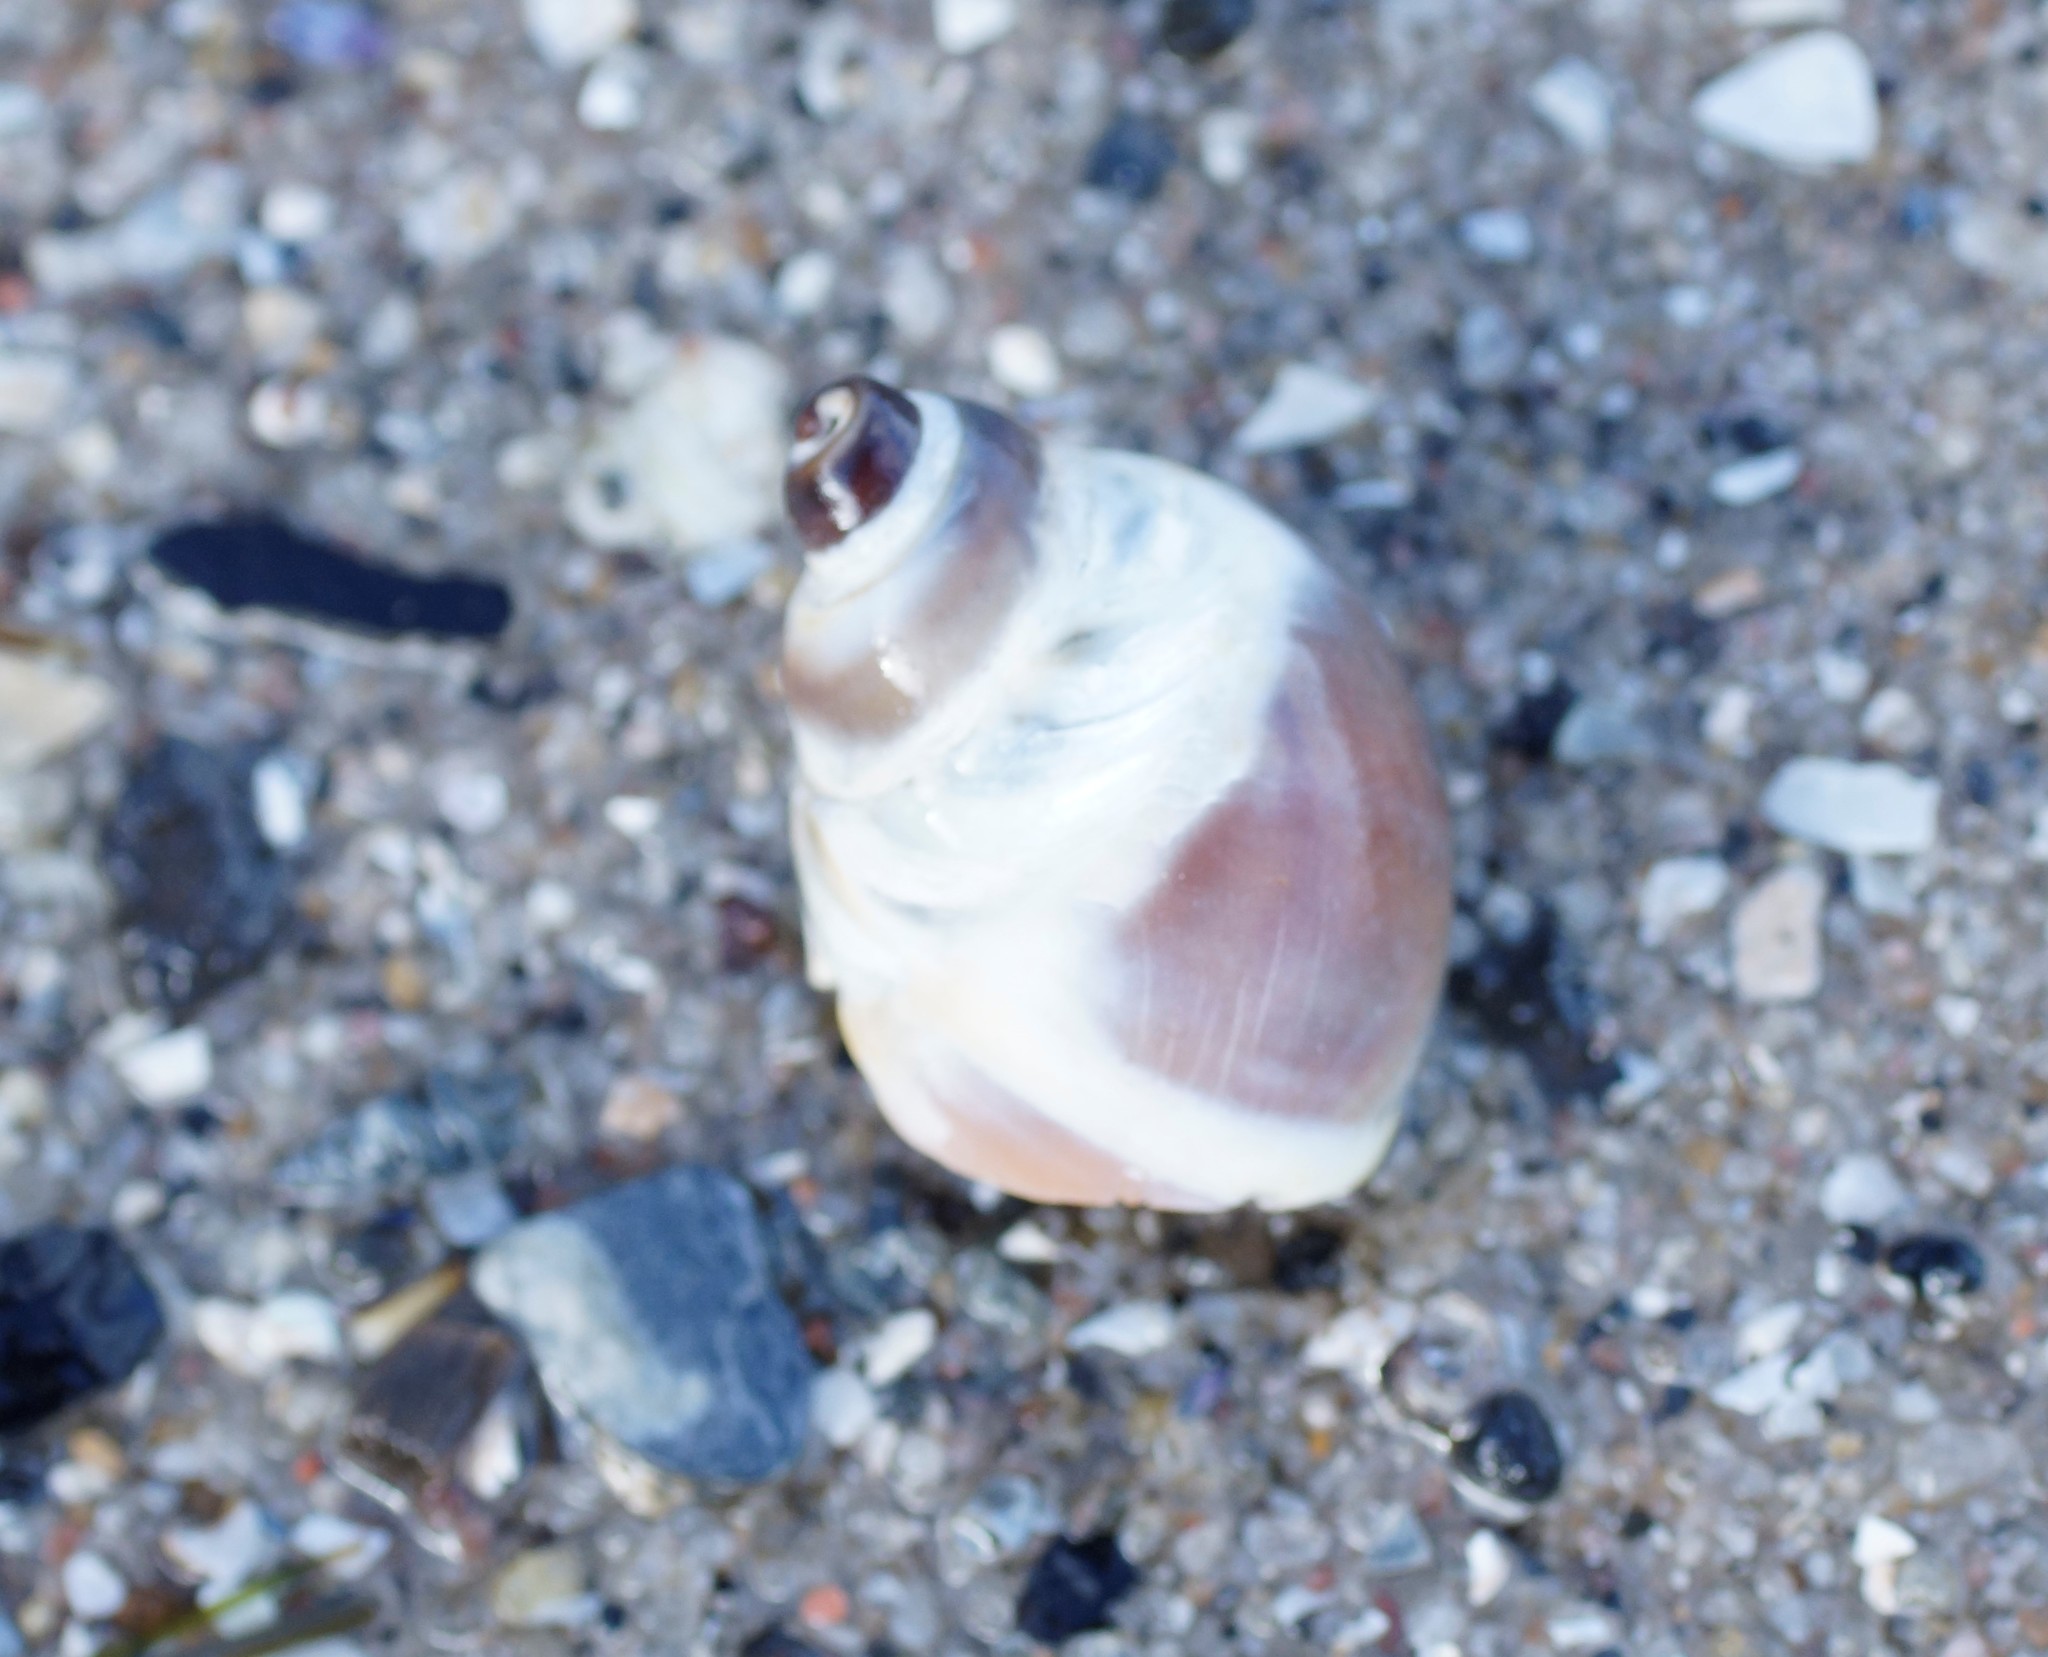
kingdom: Animalia
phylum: Mollusca
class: Gastropoda
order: Littorinimorpha
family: Naticidae
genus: Conuber
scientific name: Conuber conicum
